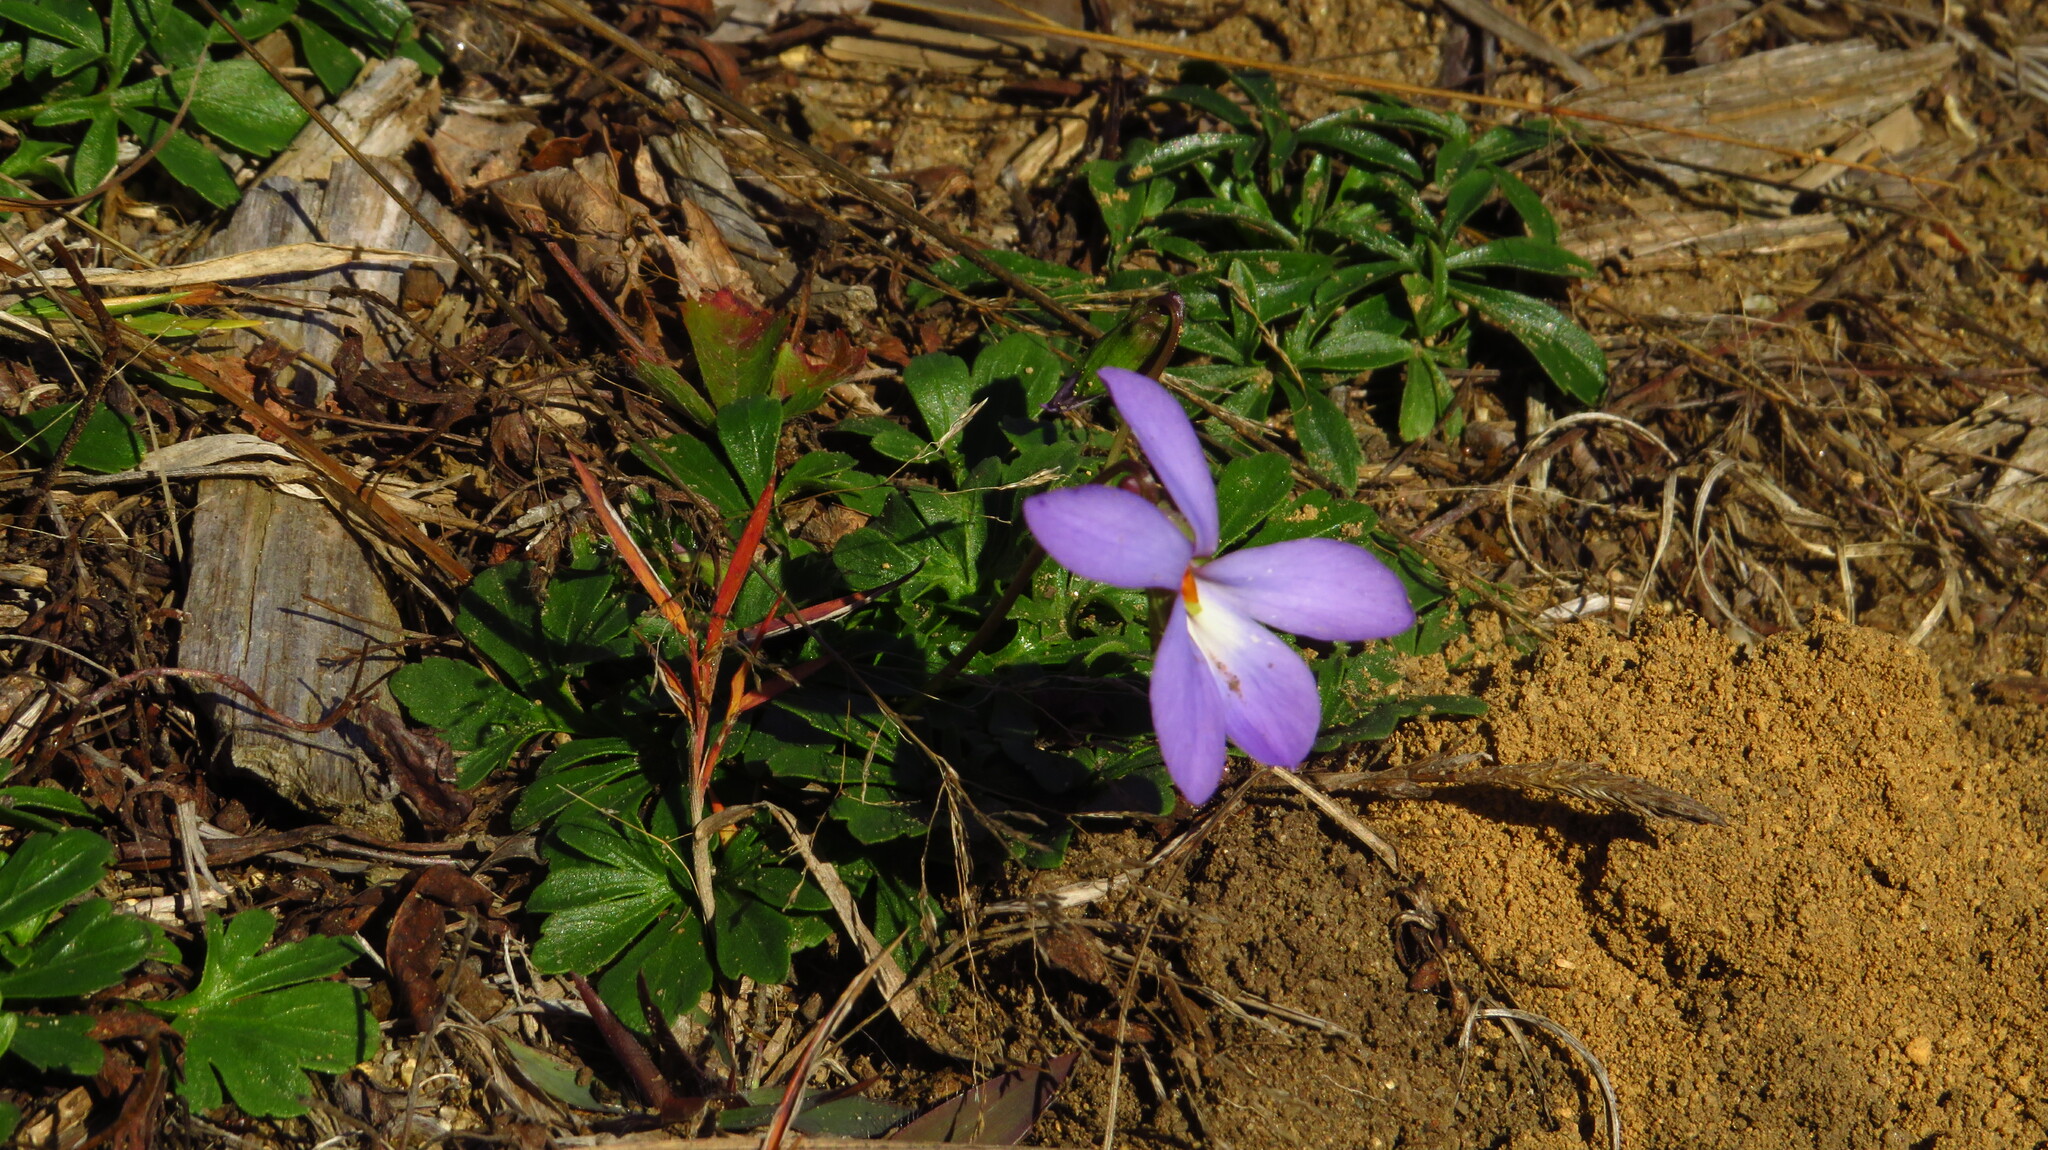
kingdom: Plantae
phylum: Tracheophyta
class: Magnoliopsida
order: Malpighiales
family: Violaceae
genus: Viola
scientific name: Viola pedata
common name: Pansy violet
